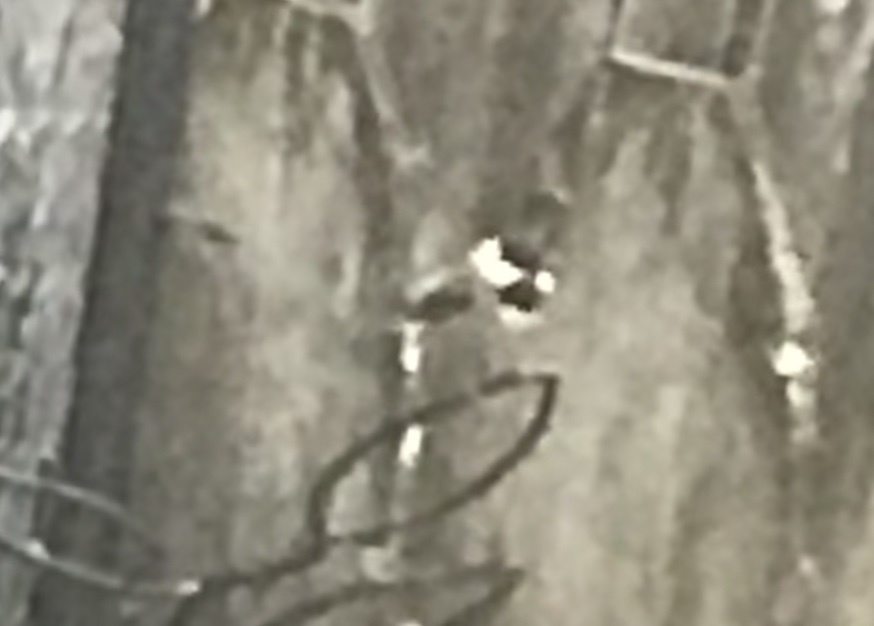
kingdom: Animalia
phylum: Chordata
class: Aves
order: Passeriformes
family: Paridae
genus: Poecile
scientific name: Poecile carolinensis
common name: Carolina chickadee
